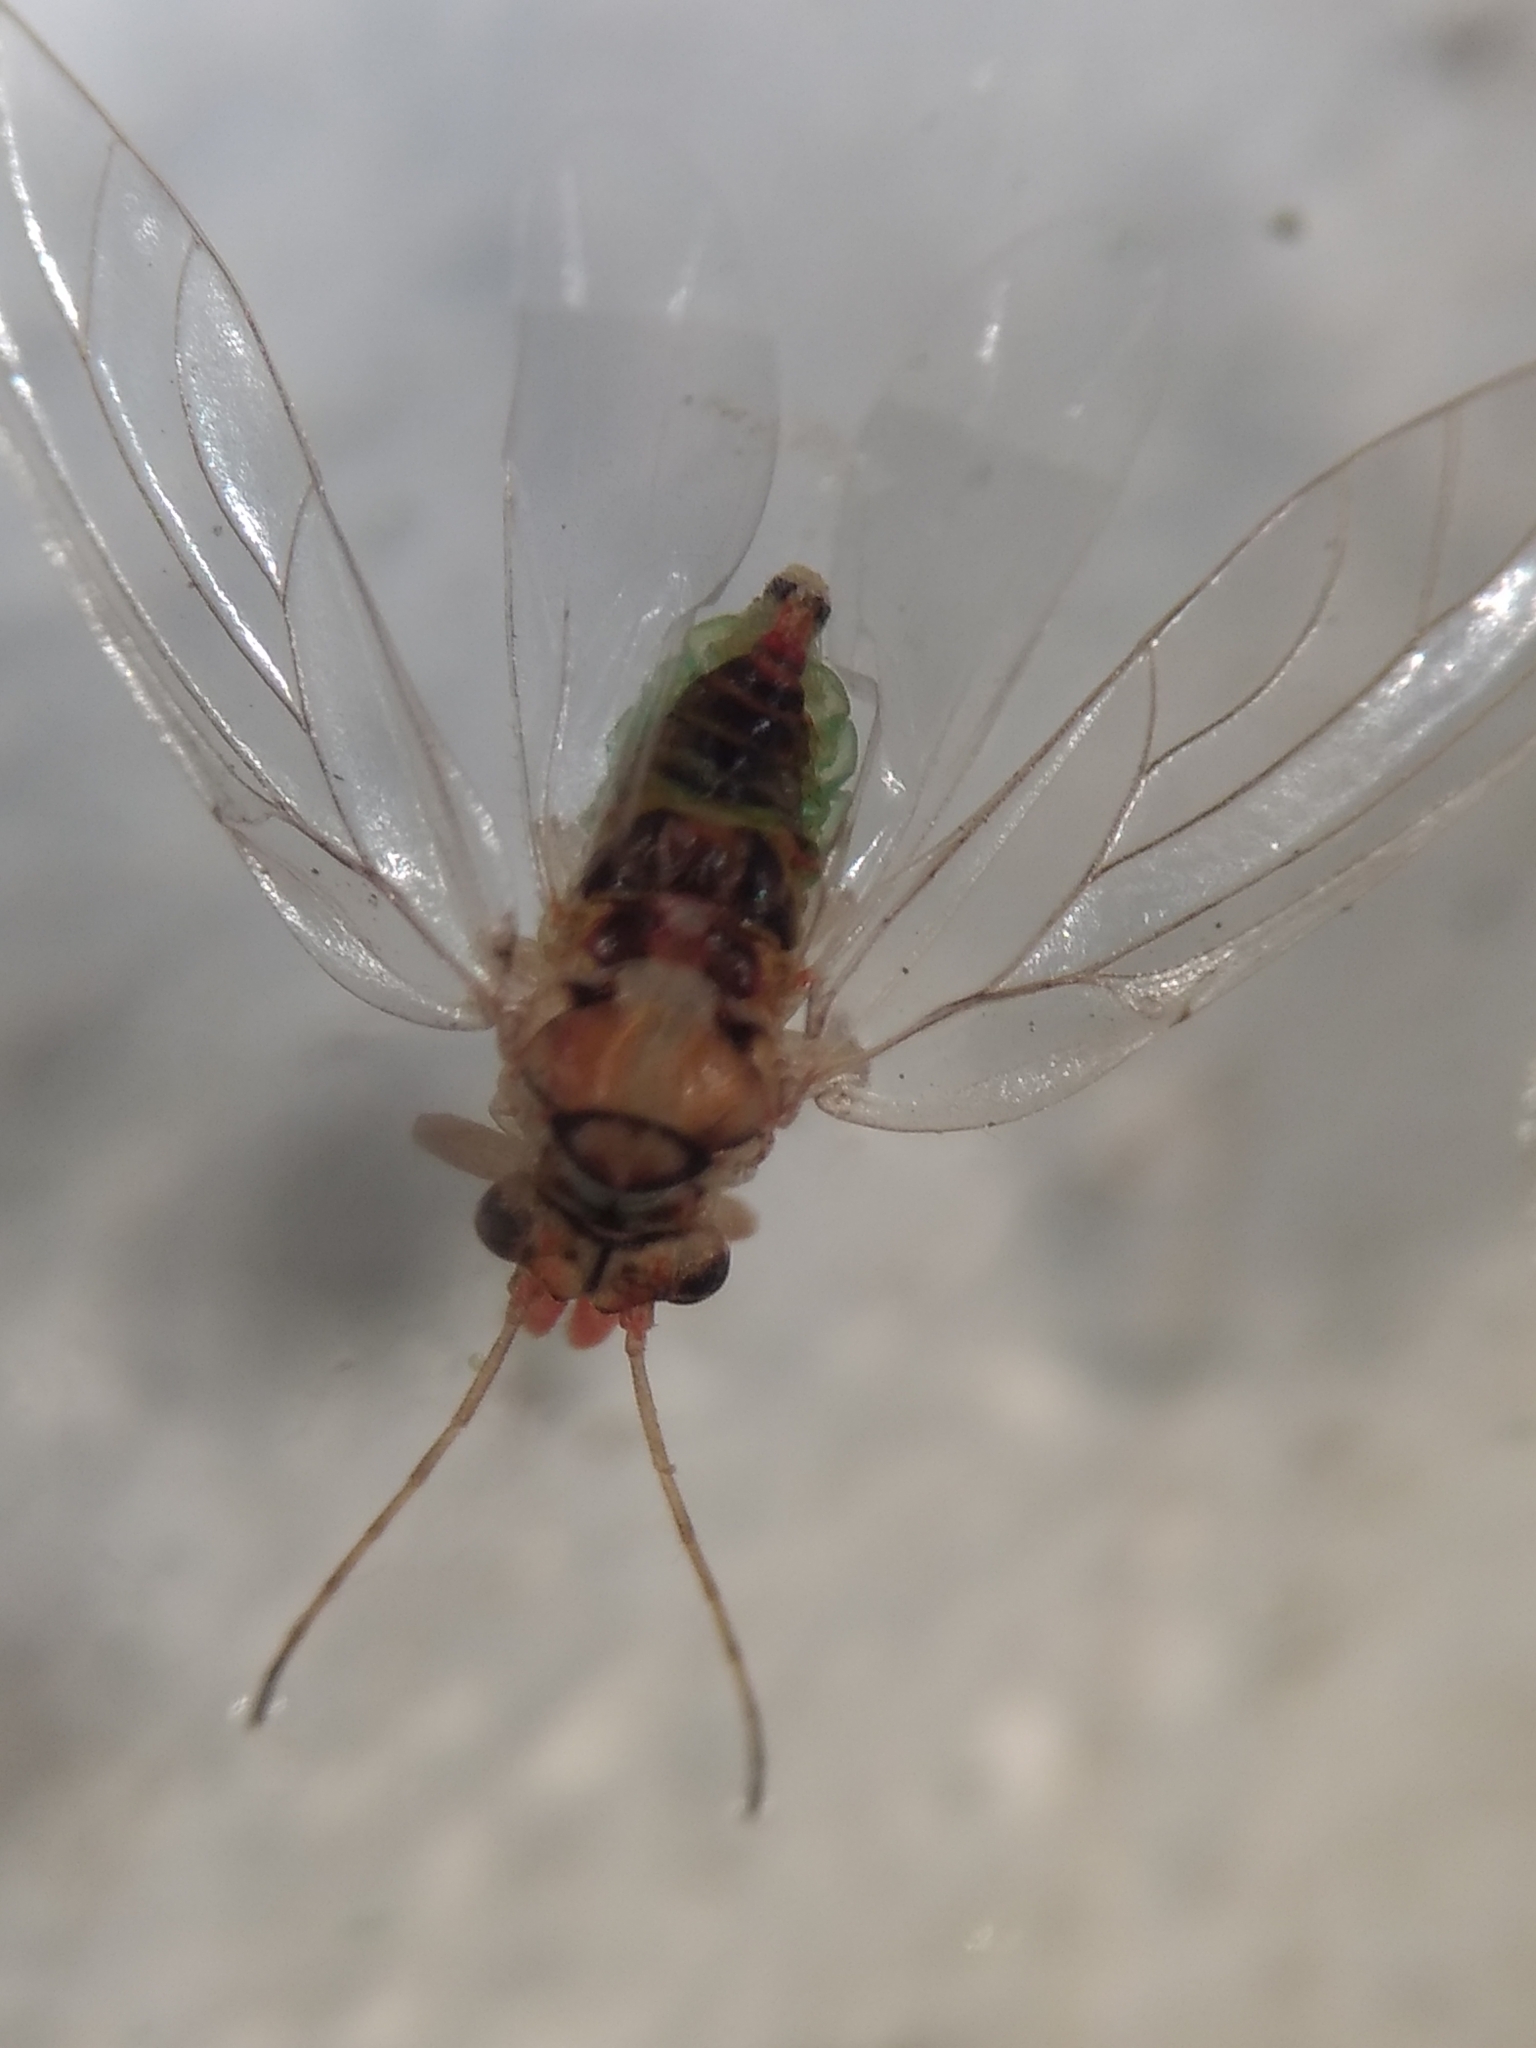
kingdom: Animalia
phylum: Arthropoda
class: Insecta
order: Hemiptera
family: Aphalaridae
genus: Glycaspis
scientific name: Glycaspis brimblecombei
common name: Red gum lerp psyllid
